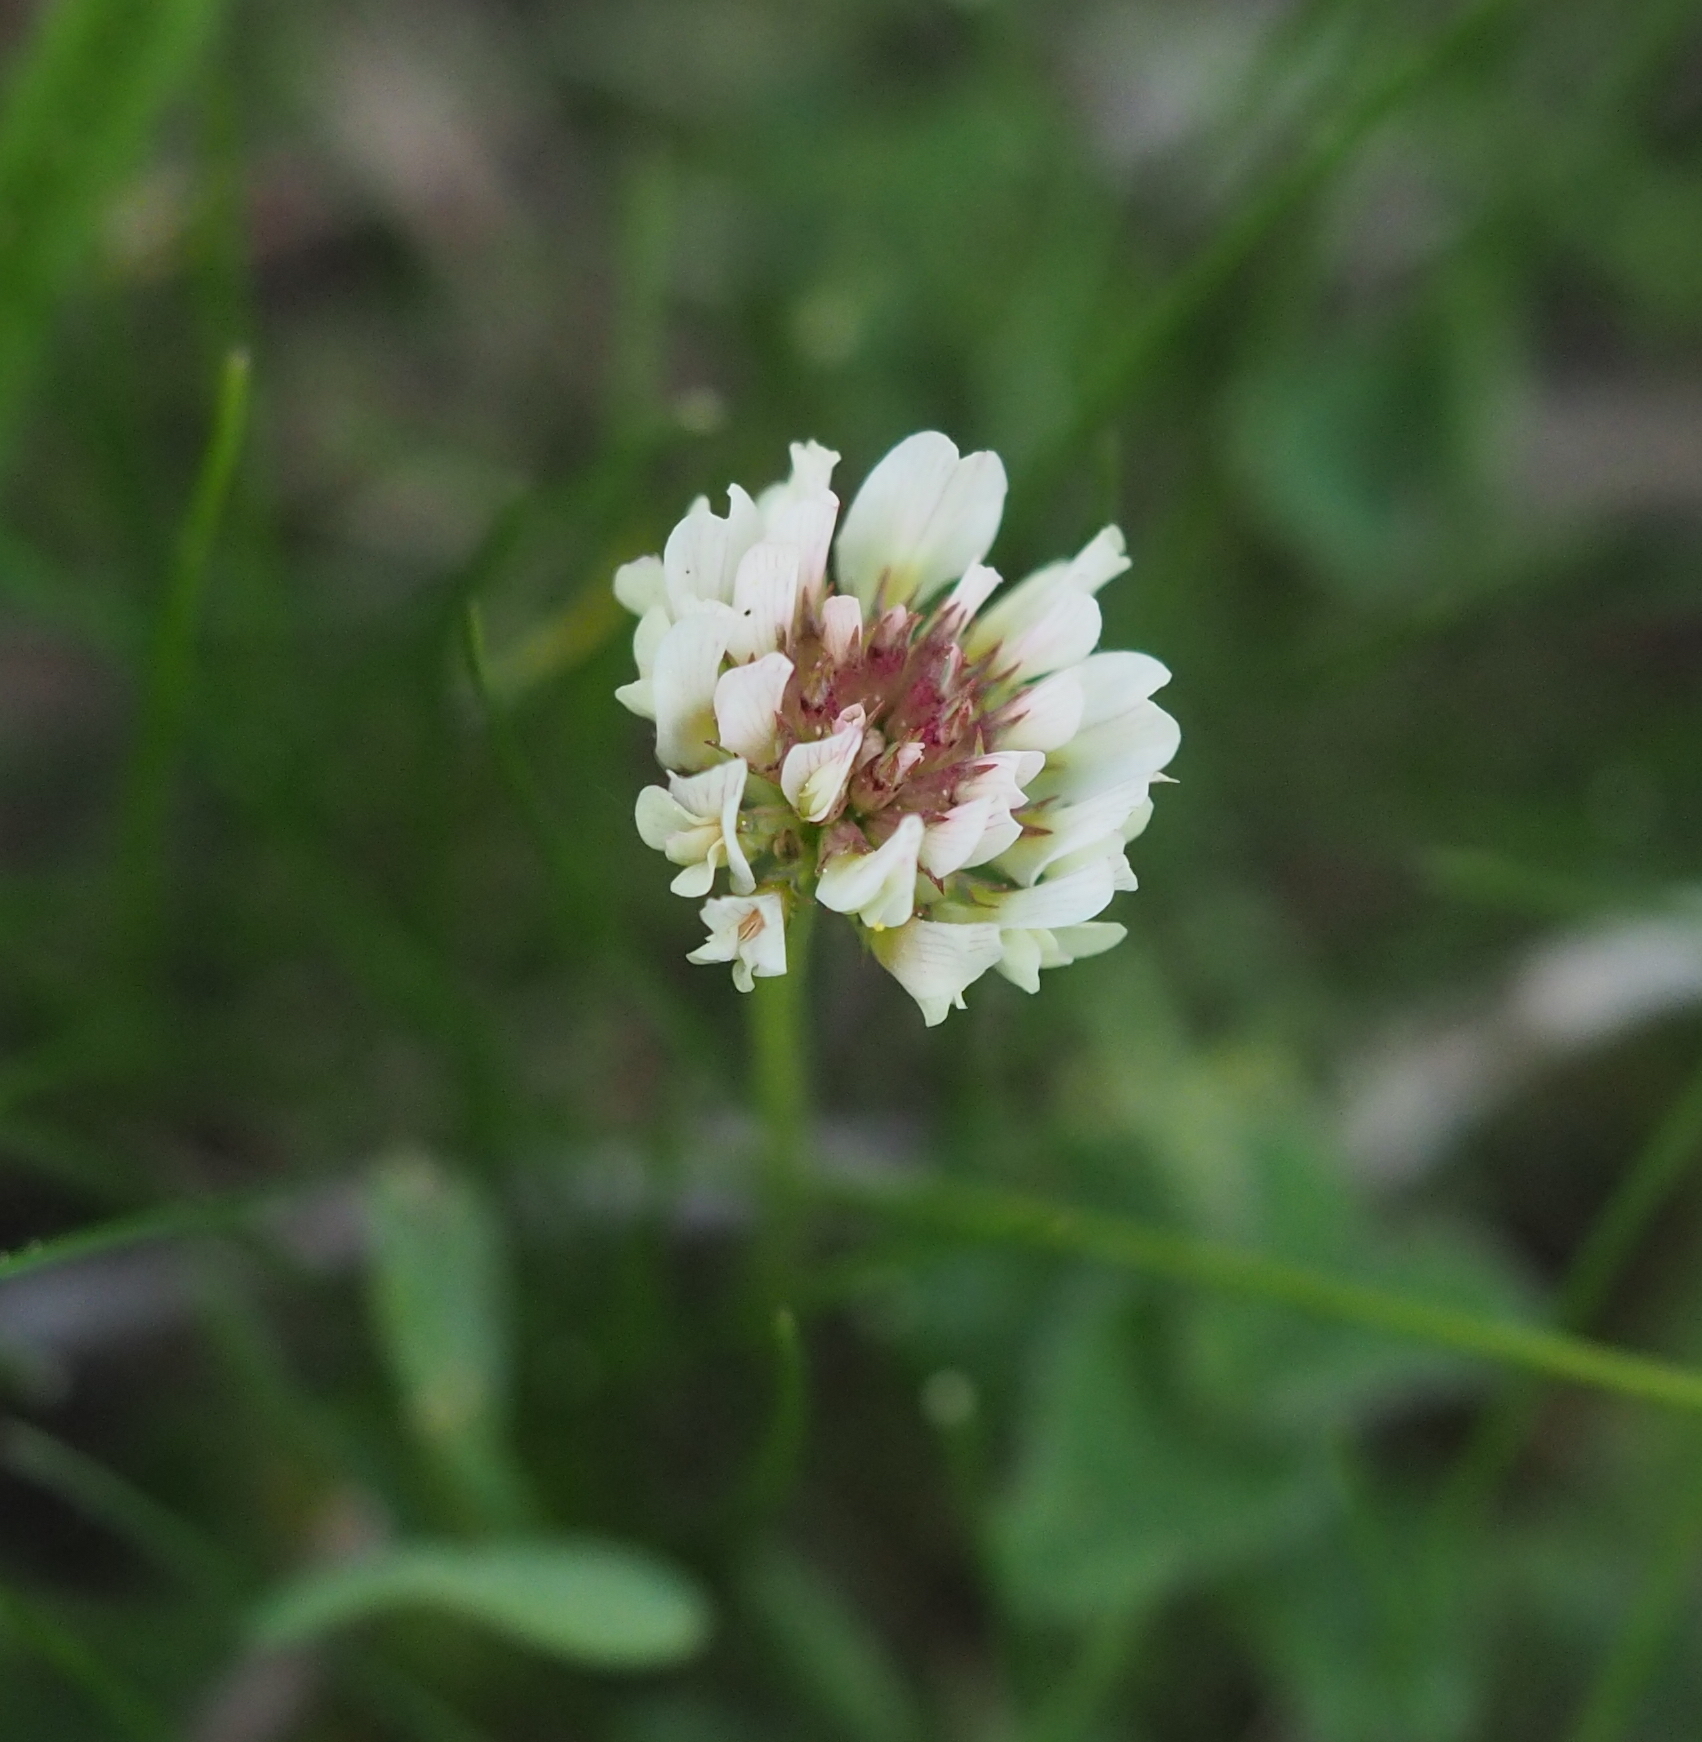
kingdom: Plantae
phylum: Tracheophyta
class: Magnoliopsida
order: Fabales
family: Fabaceae
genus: Trifolium
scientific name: Trifolium repens
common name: White clover
